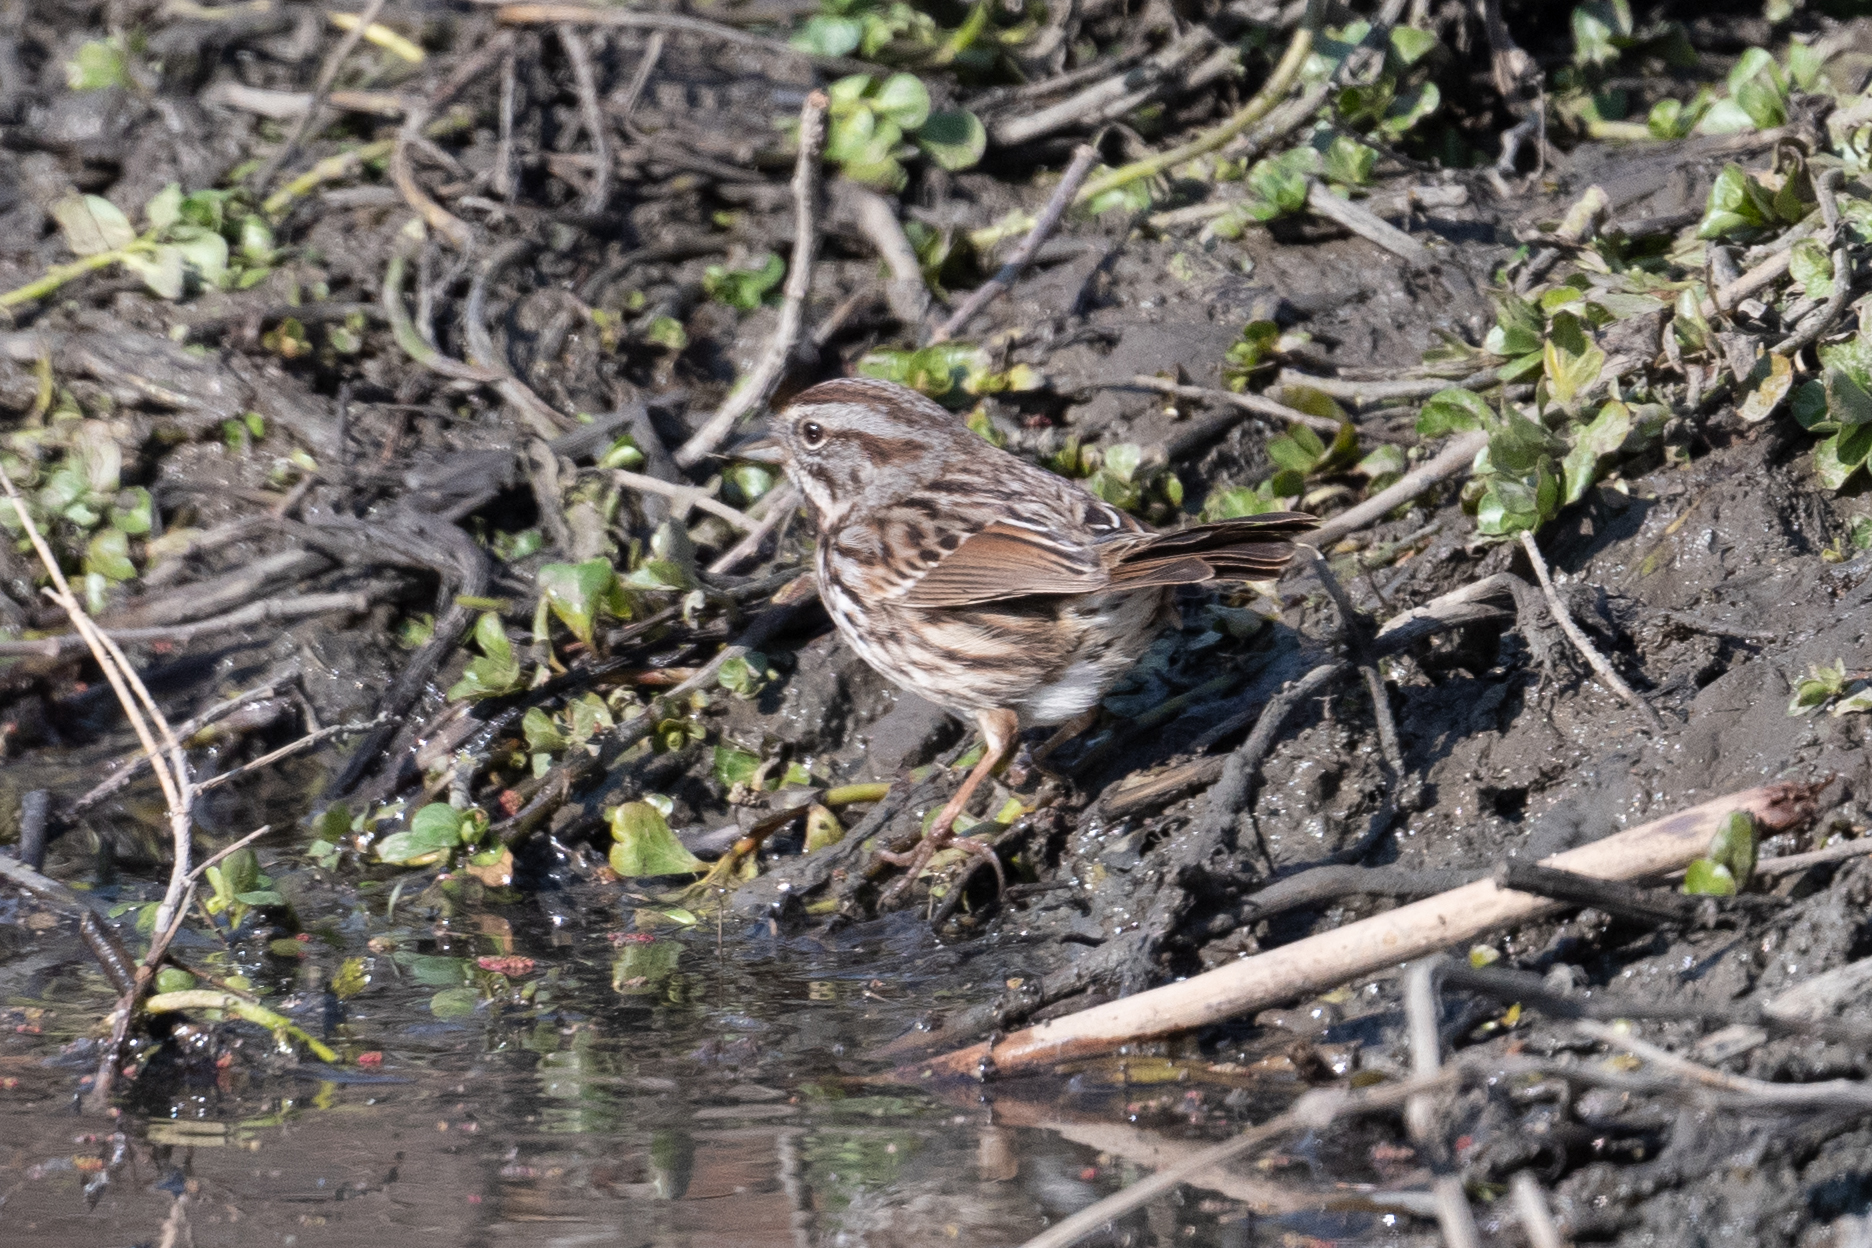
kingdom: Animalia
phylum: Chordata
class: Aves
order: Passeriformes
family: Passerellidae
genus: Melospiza
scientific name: Melospiza melodia
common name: Song sparrow
